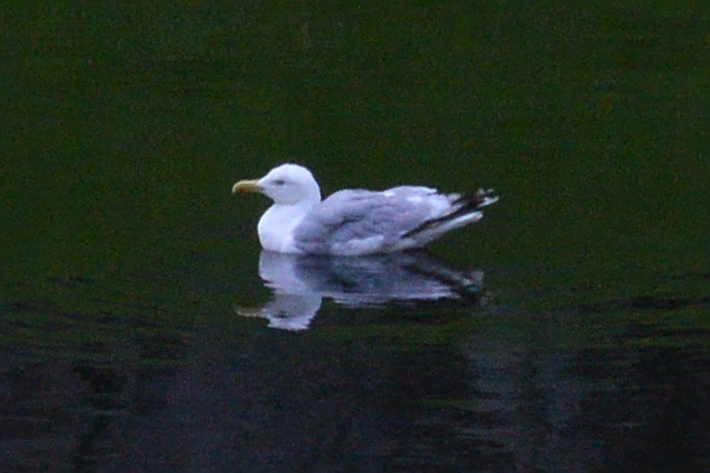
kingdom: Animalia
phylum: Chordata
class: Aves
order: Charadriiformes
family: Laridae
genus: Larus
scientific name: Larus argentatus
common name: Herring gull
